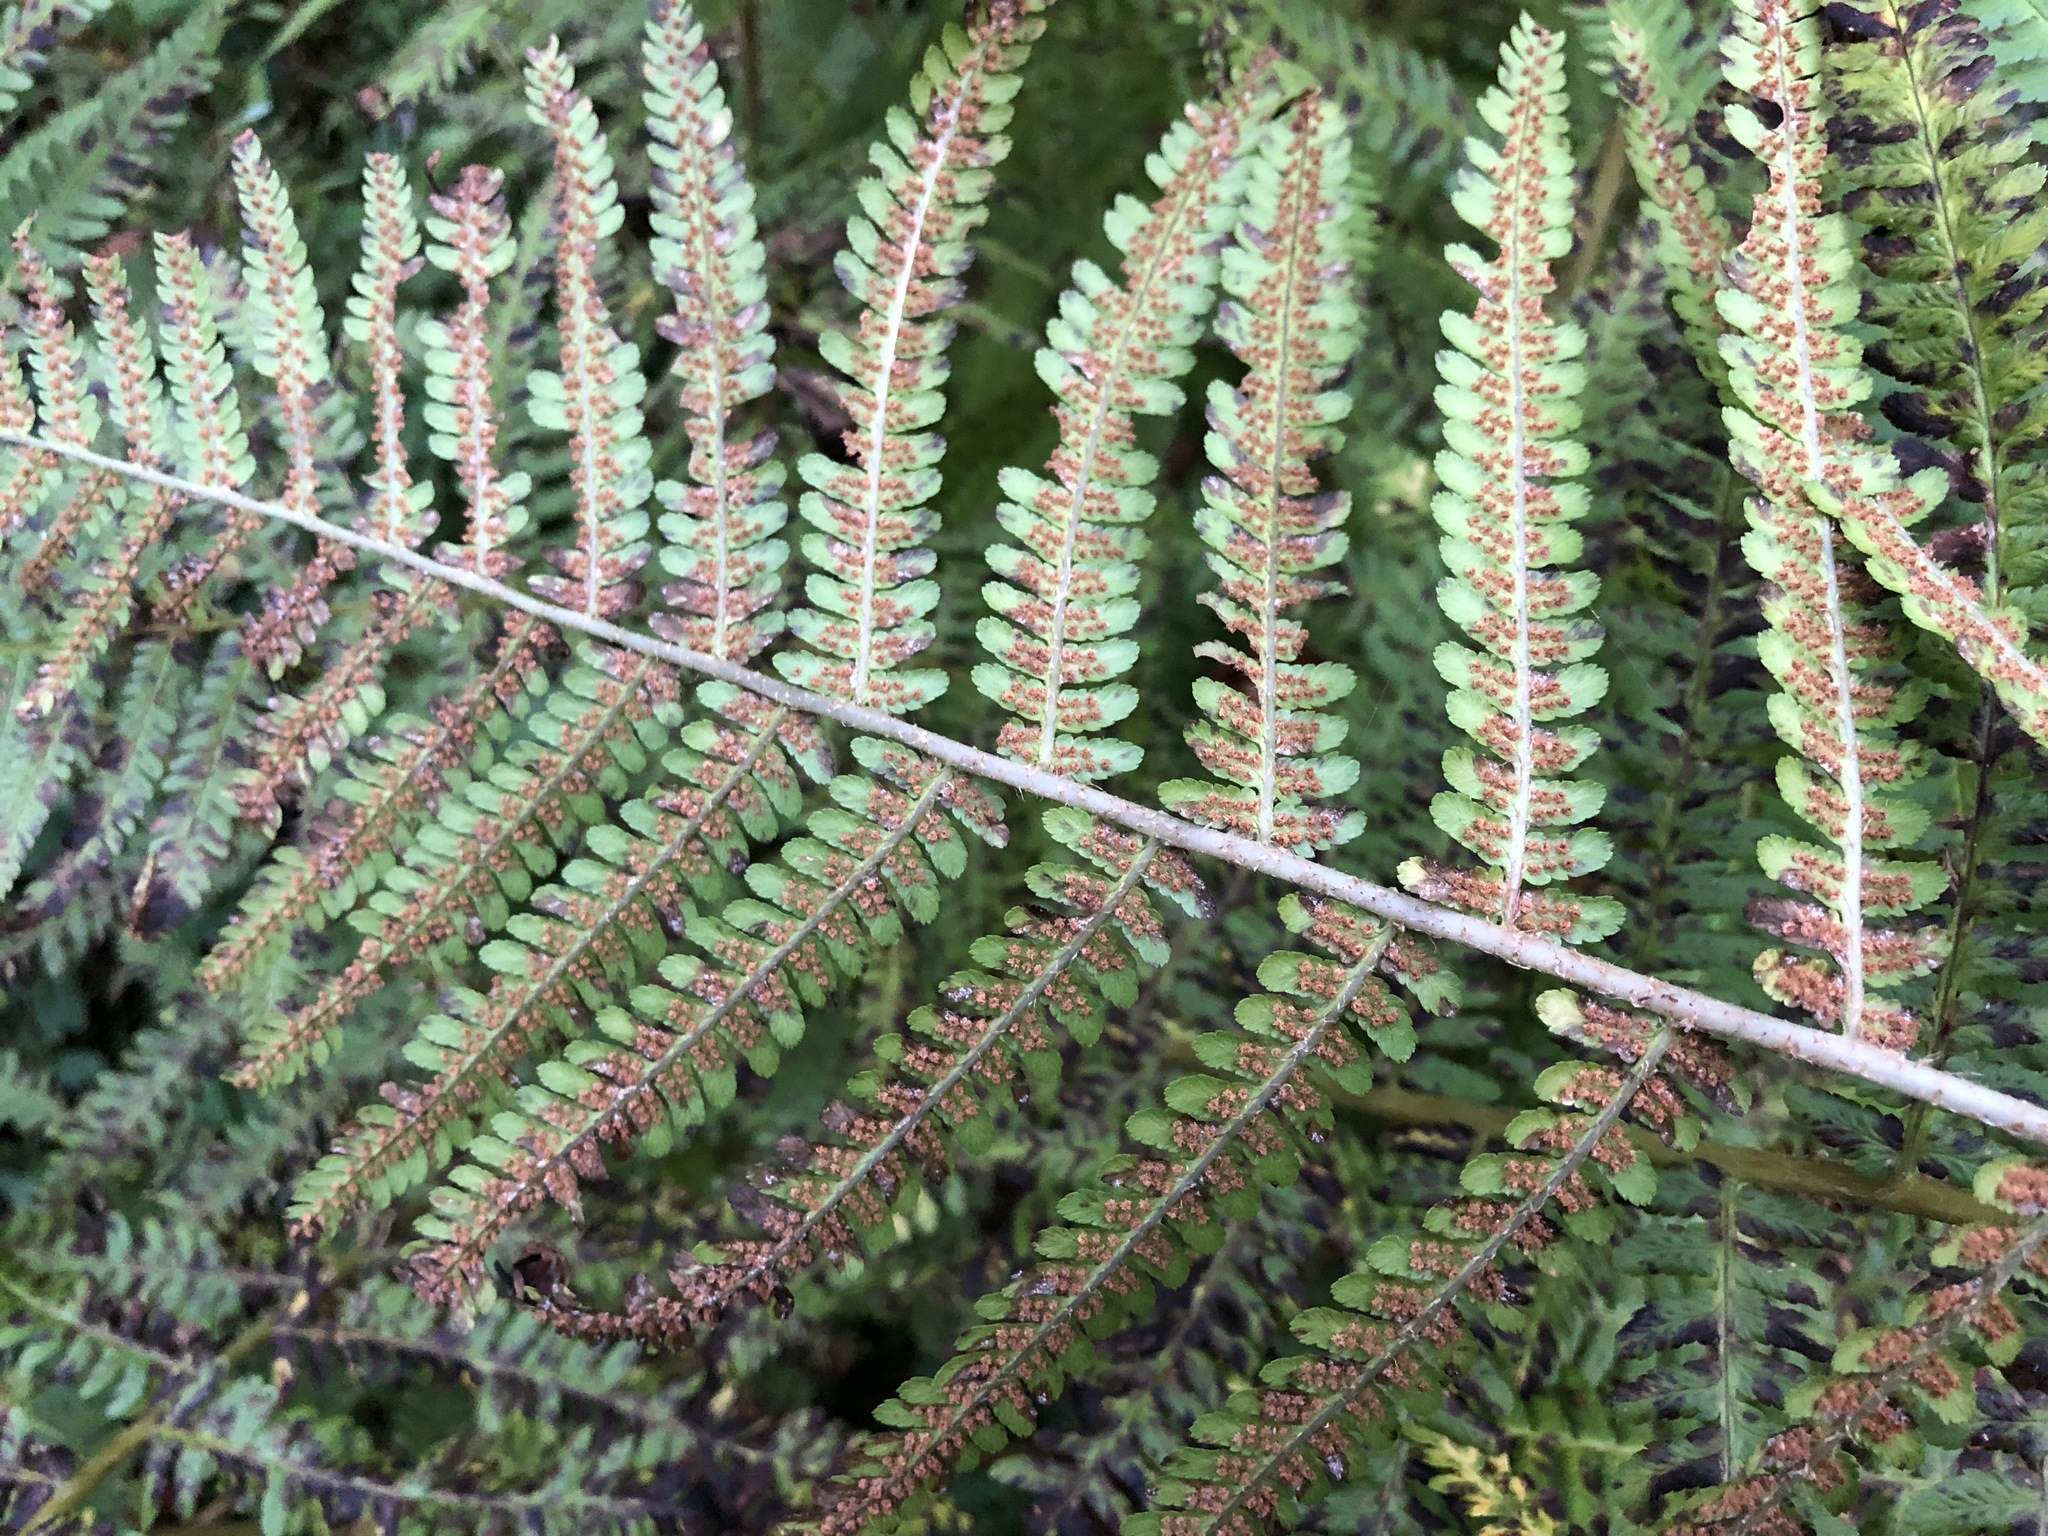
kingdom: Plantae
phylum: Tracheophyta
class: Polypodiopsida
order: Polypodiales
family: Dryopteridaceae
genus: Dryopteris
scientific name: Dryopteris filix-mas
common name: Male fern
